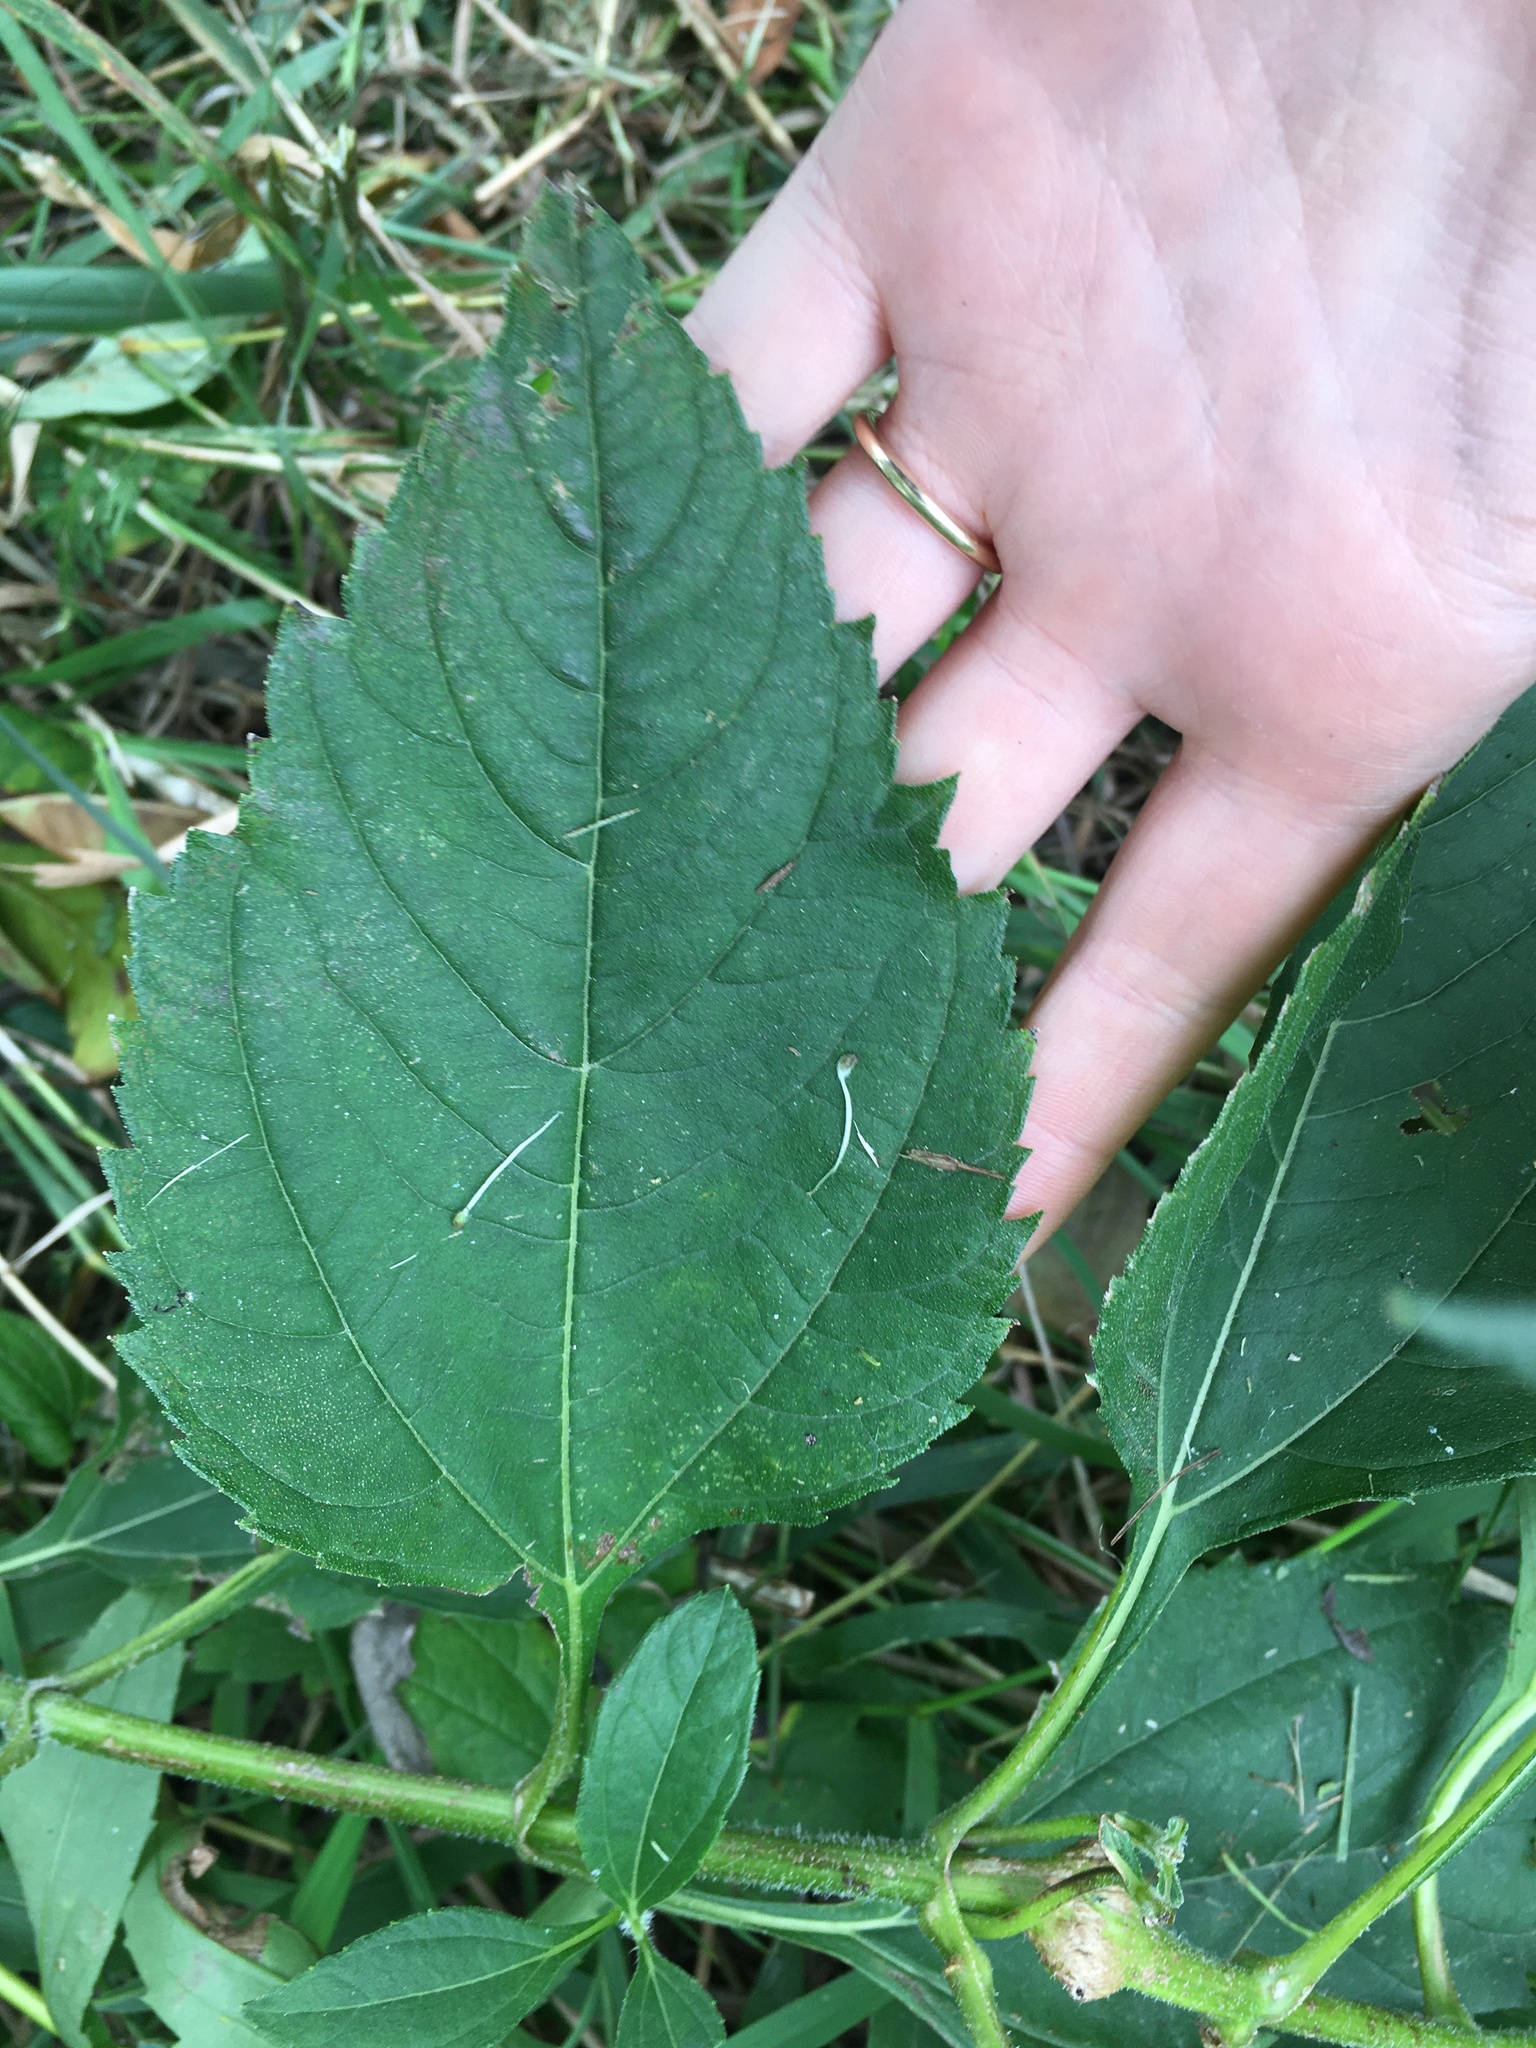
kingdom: Plantae
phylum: Tracheophyta
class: Magnoliopsida
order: Asterales
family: Asteraceae
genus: Helianthus
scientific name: Helianthus tuberosus
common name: Jerusalem artichoke
